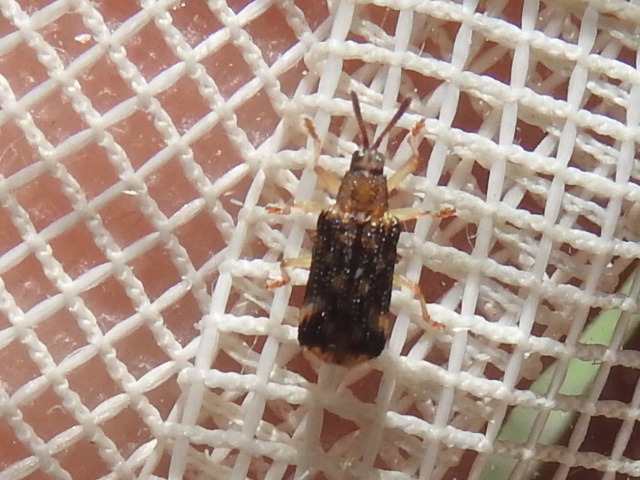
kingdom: Animalia
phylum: Arthropoda
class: Insecta
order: Coleoptera
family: Chrysomelidae
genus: Sumitrosis
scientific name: Sumitrosis inaequalis
